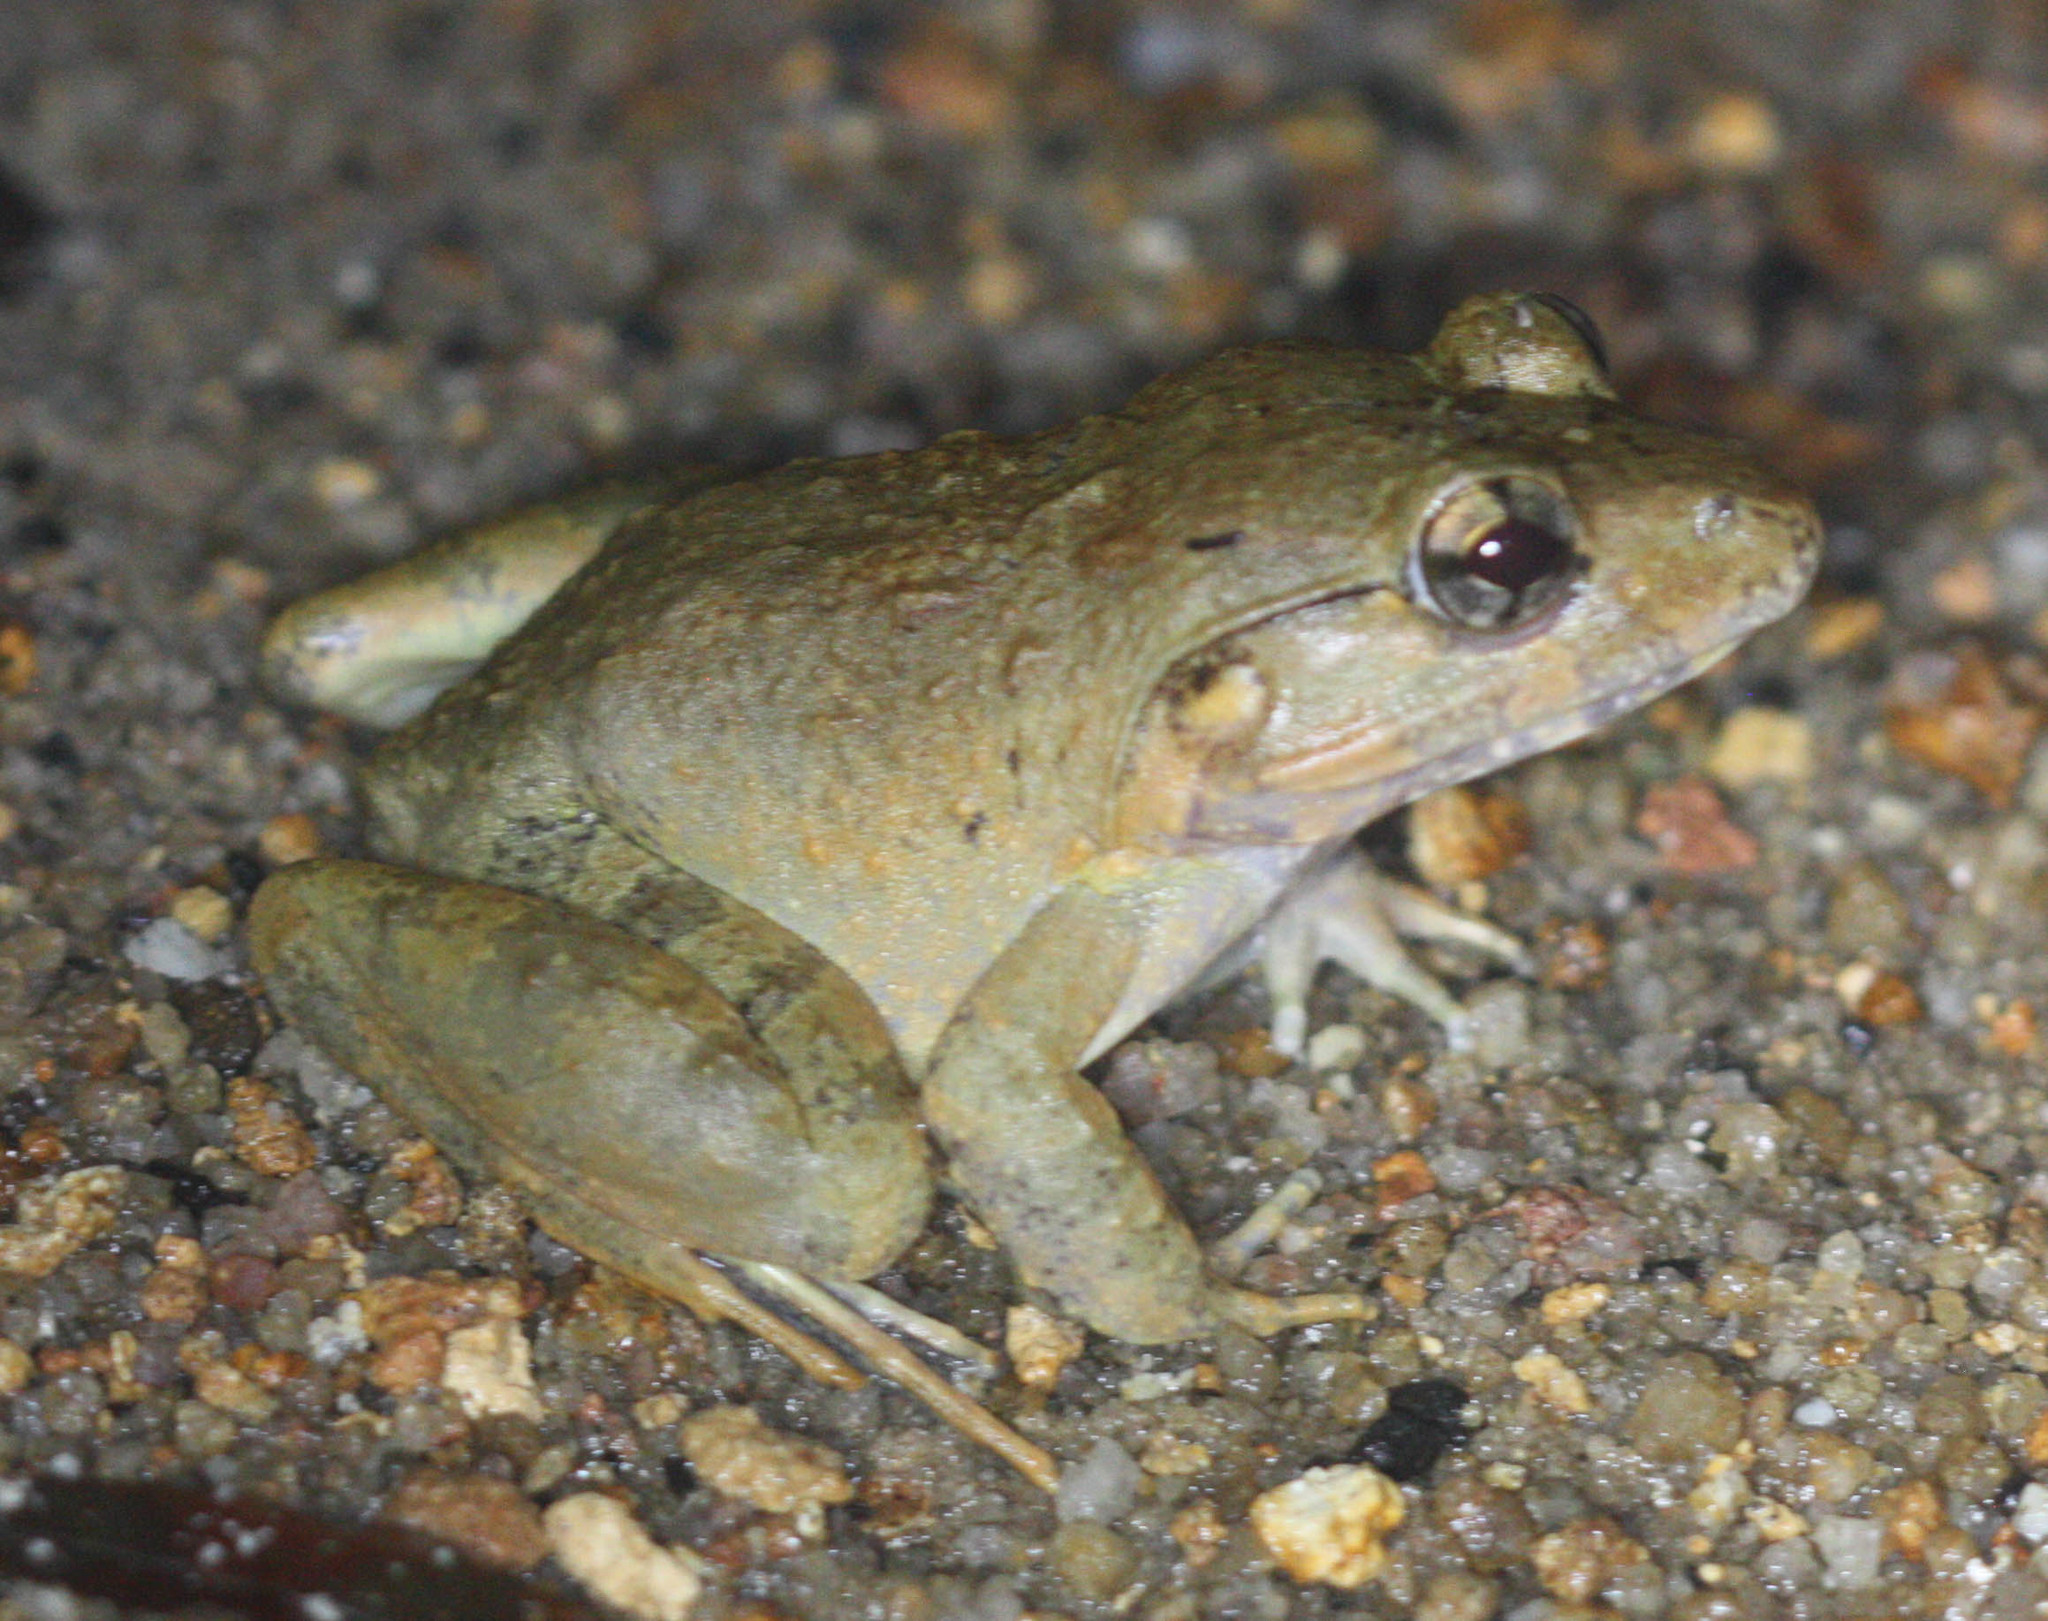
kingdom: Animalia
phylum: Chordata
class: Amphibia
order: Anura
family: Dicroglossidae
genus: Limnonectes
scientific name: Limnonectes blythii
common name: Blyth’s river frog/giant asian river frog/giant frog
